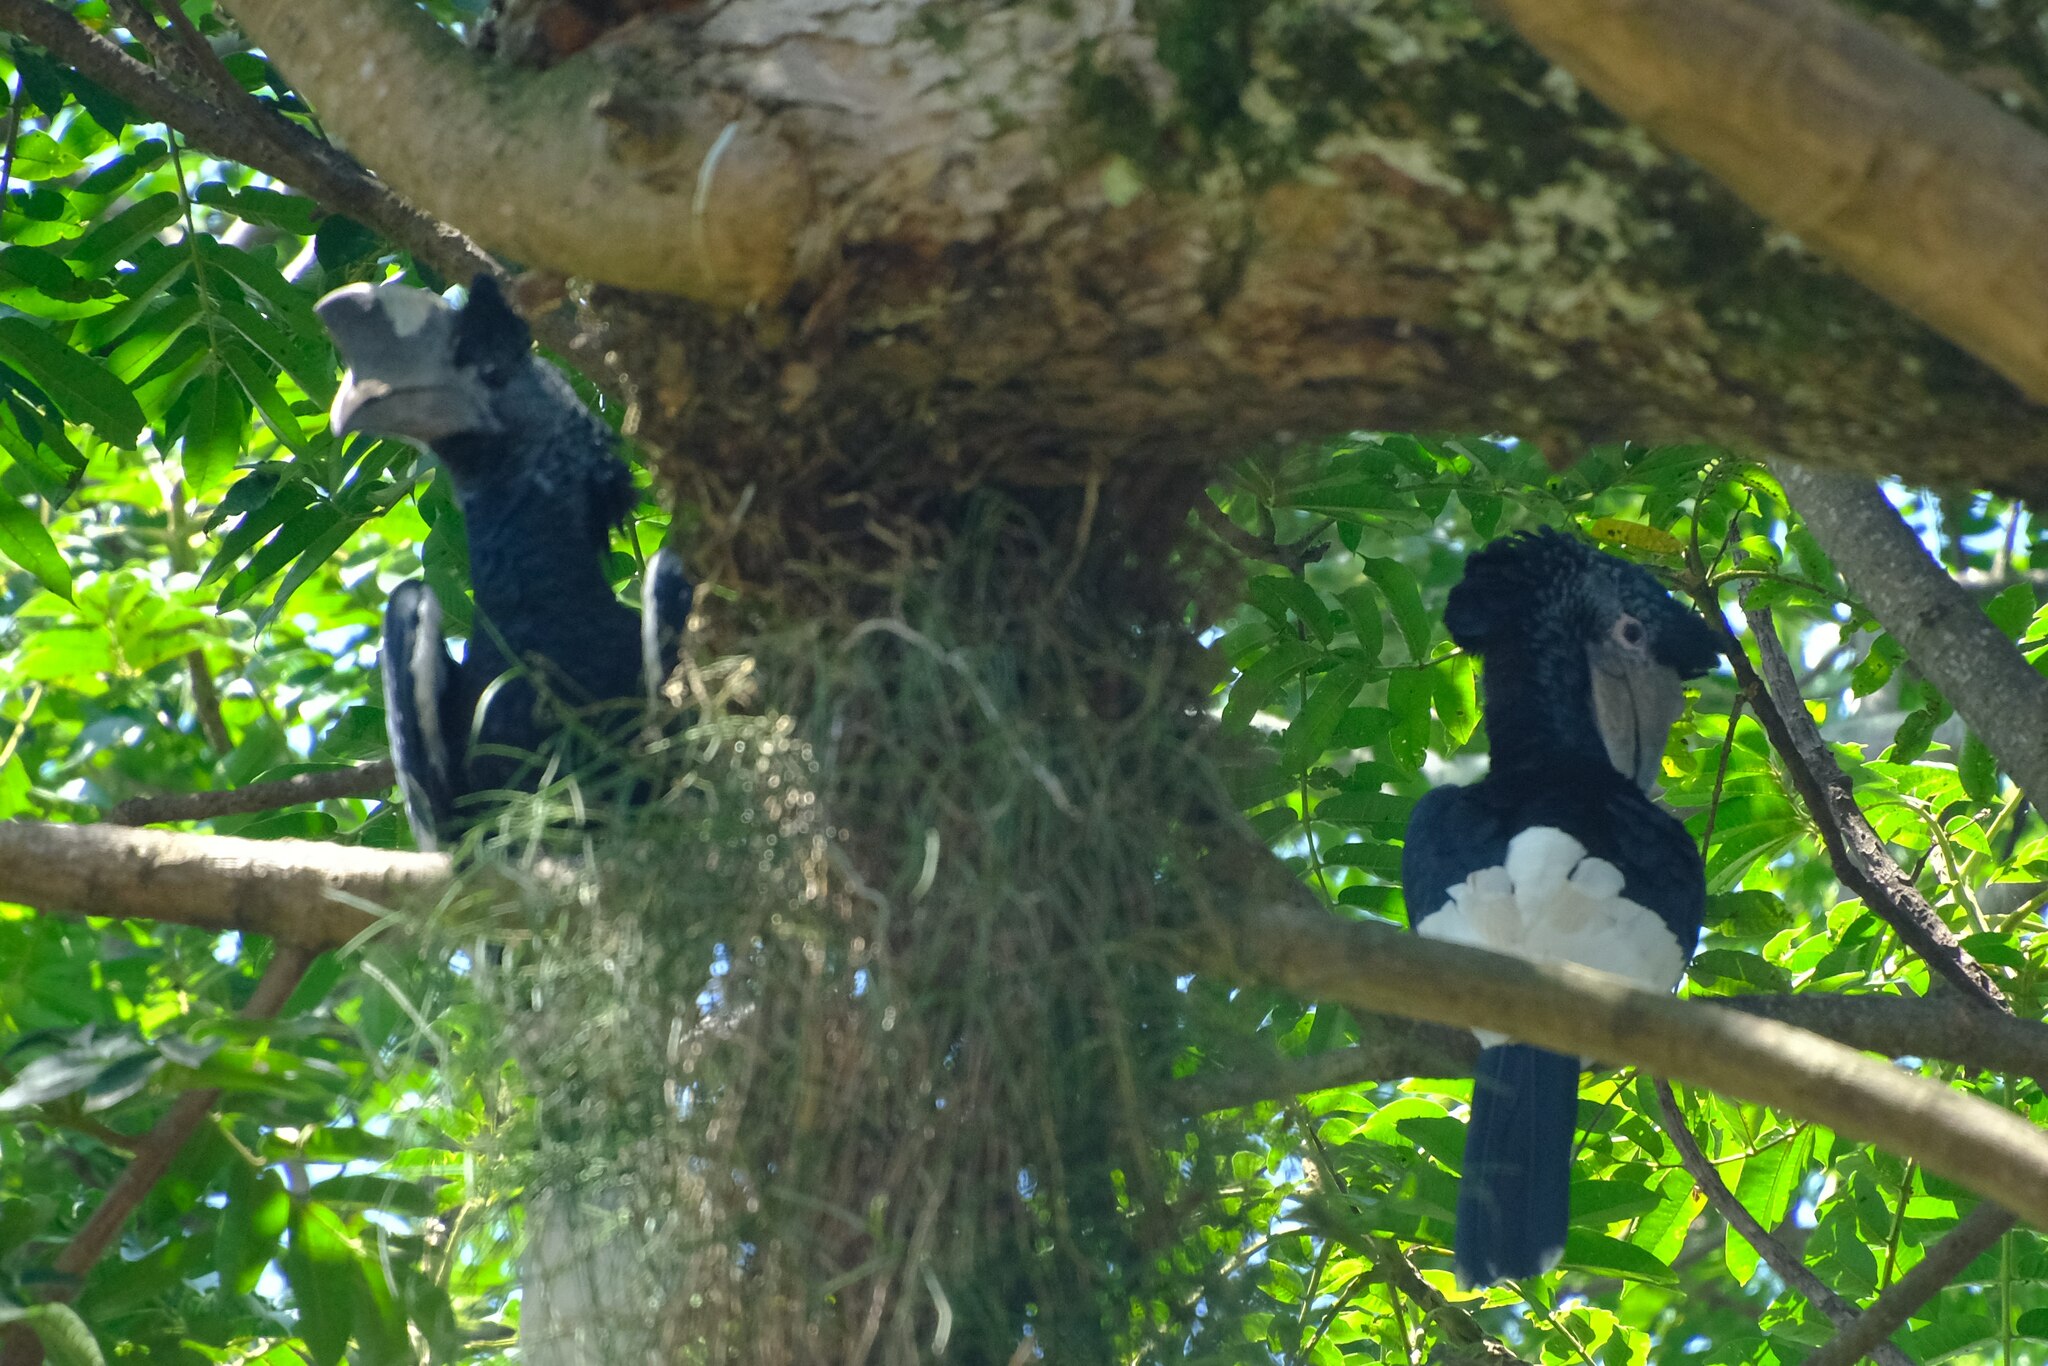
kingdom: Animalia
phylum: Chordata
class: Aves
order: Bucerotiformes
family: Bucerotidae
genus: Bycanistes
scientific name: Bycanistes subcylindricus
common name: Black-and-white-casqued hornbill
